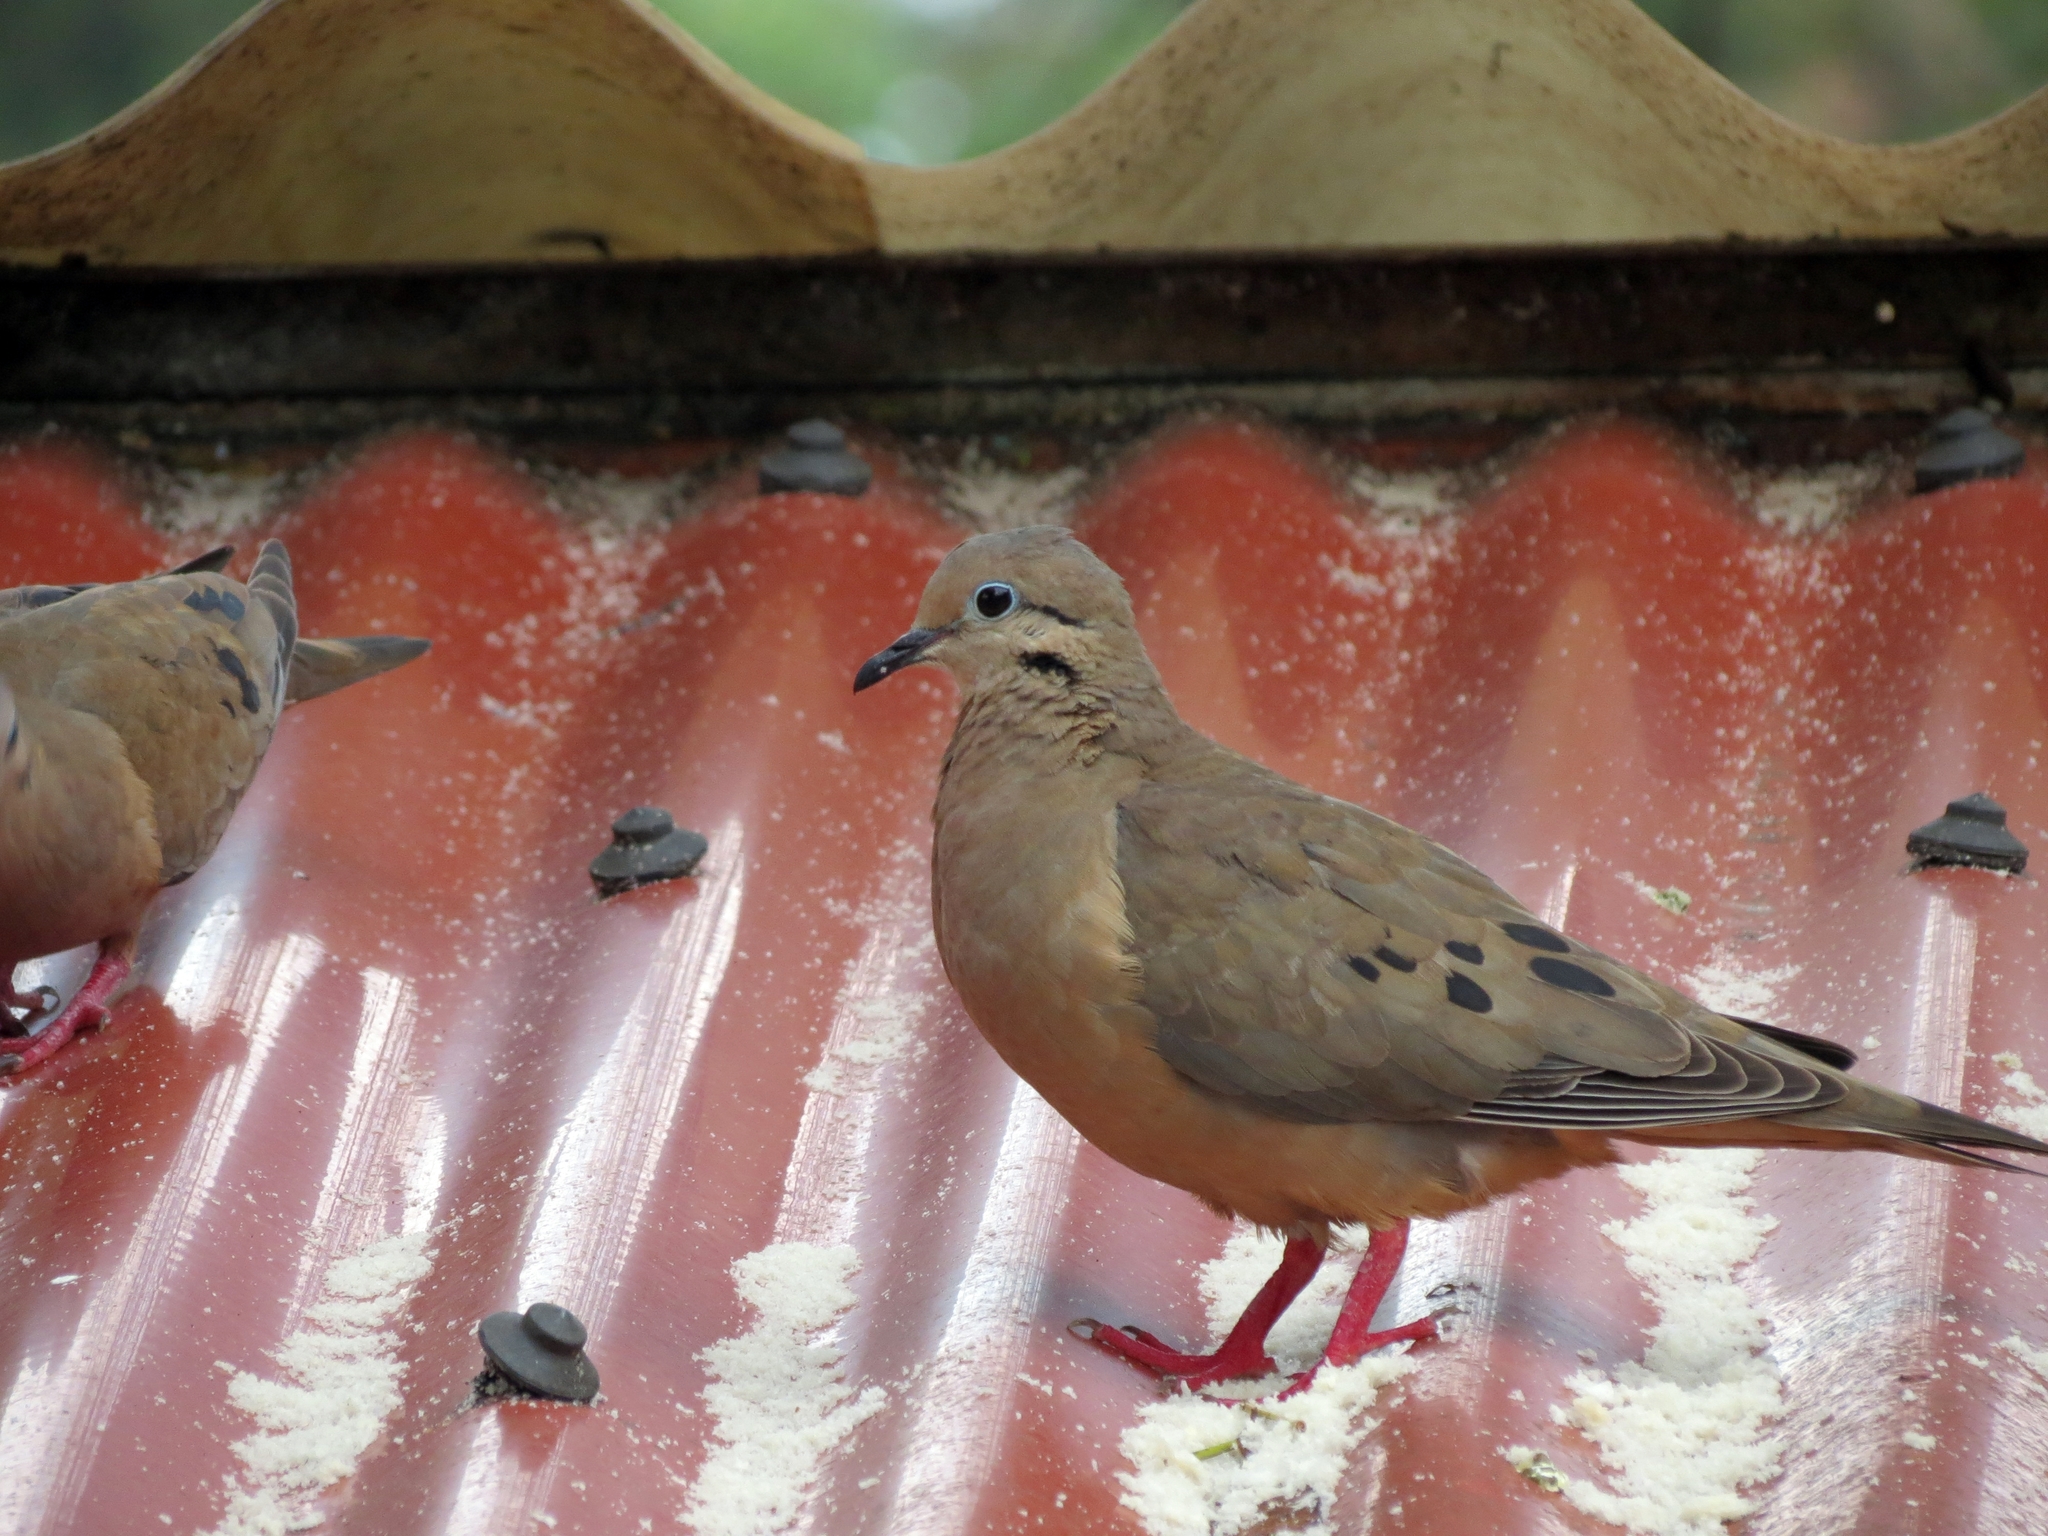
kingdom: Animalia
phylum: Chordata
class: Aves
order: Columbiformes
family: Columbidae
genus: Zenaida
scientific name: Zenaida auriculata
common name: Eared dove
